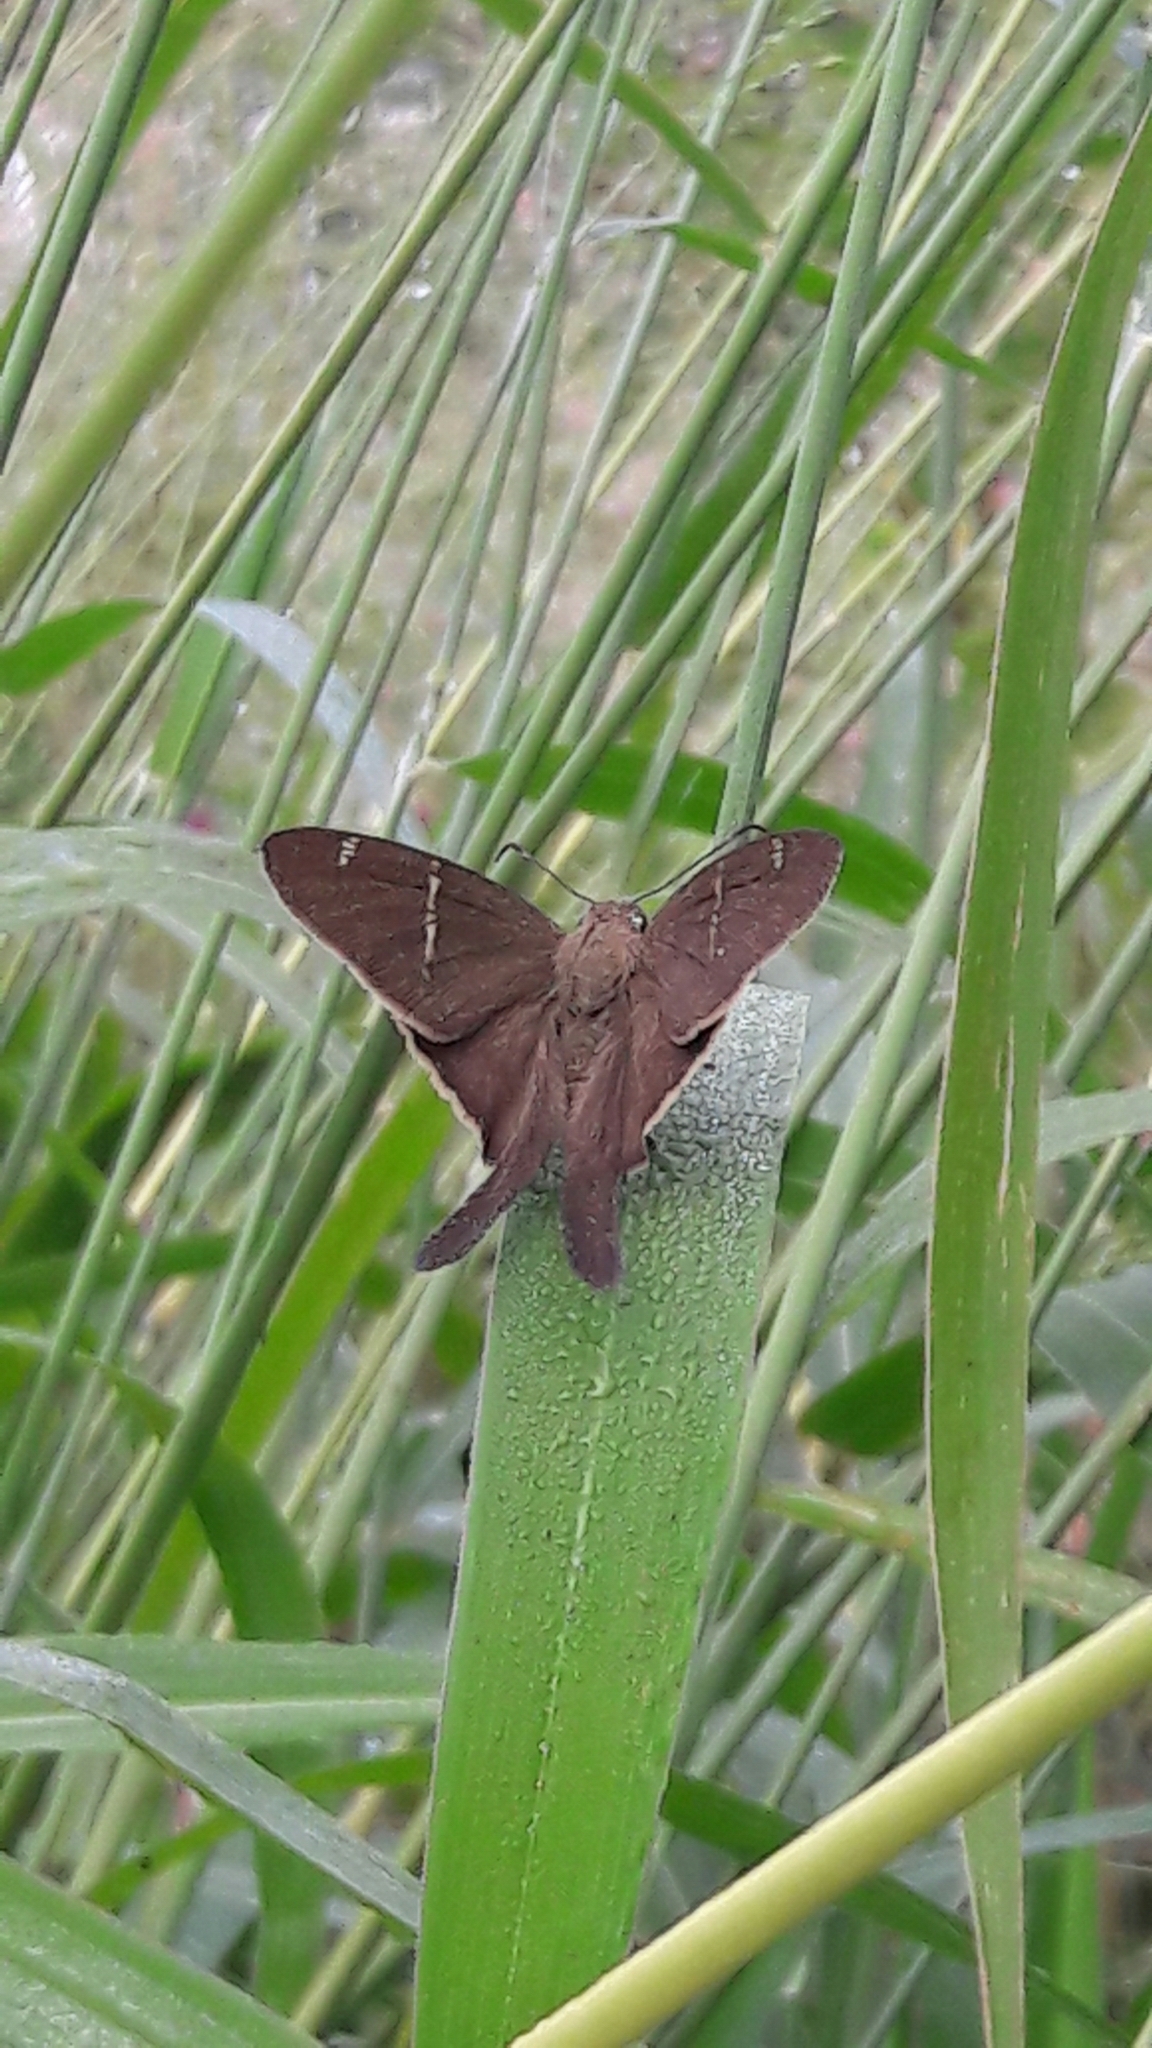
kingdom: Animalia
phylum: Arthropoda
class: Insecta
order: Lepidoptera
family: Hesperiidae
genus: Urbanus
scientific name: Urbanus teleus
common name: Teleus longtail
